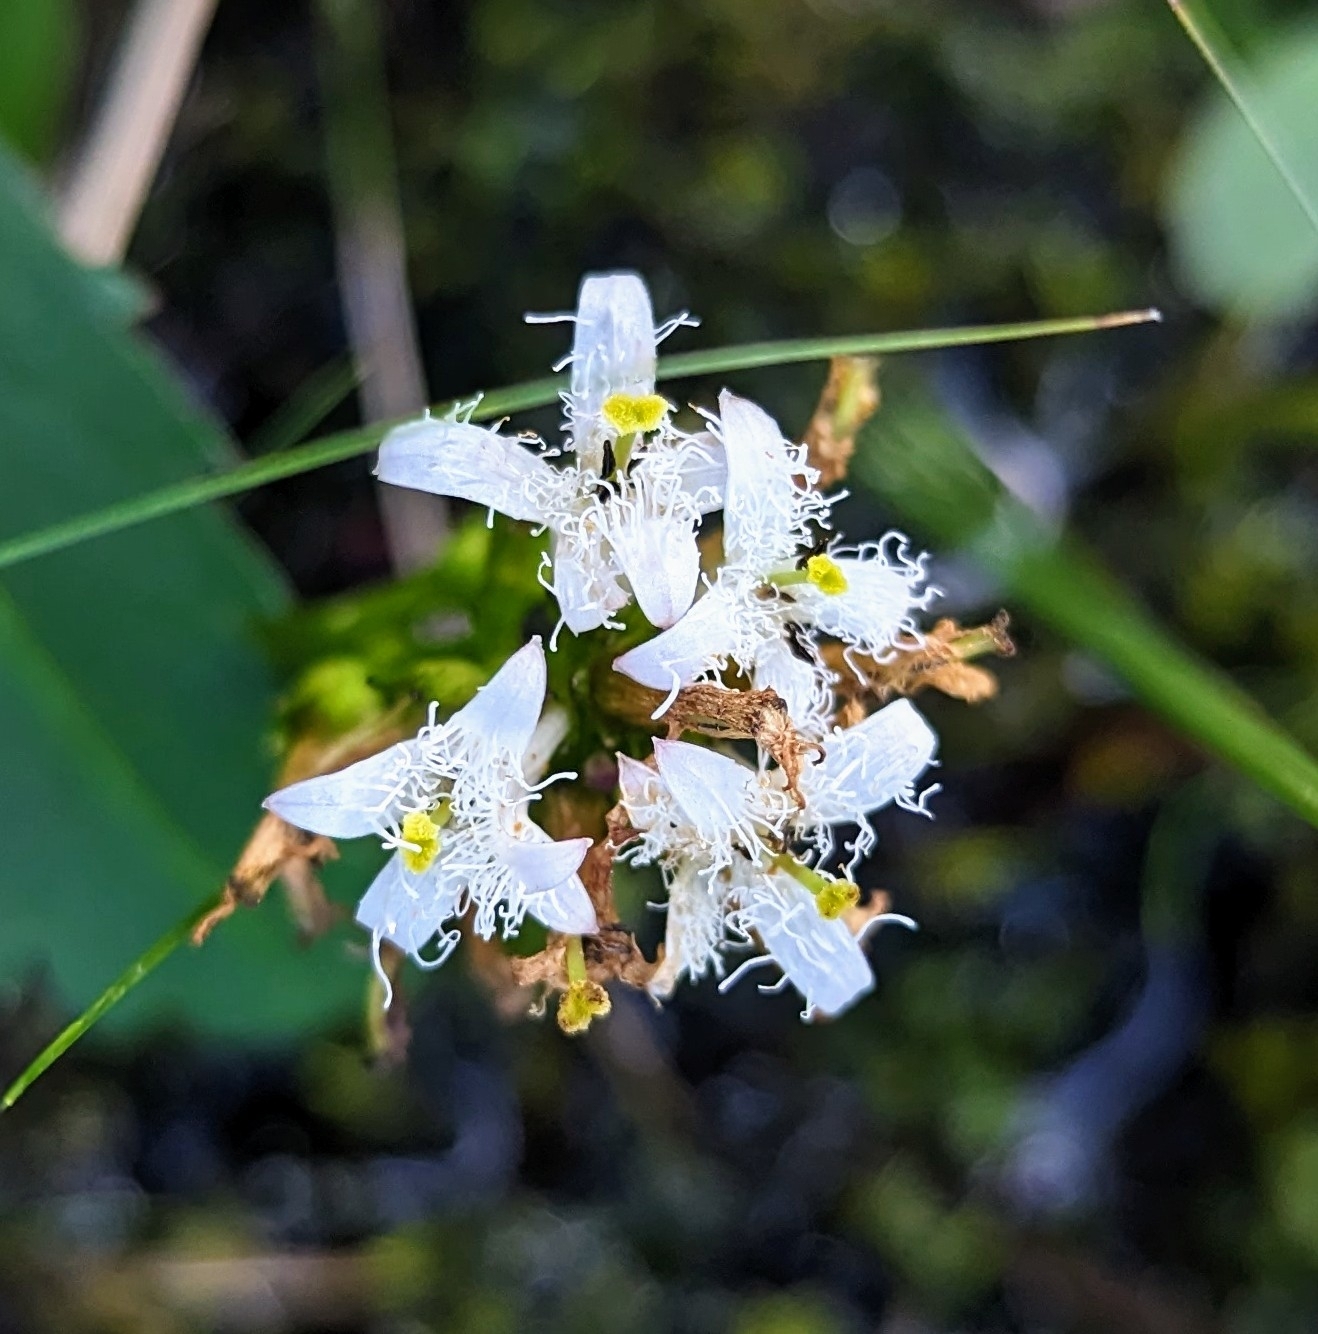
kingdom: Plantae
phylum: Tracheophyta
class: Magnoliopsida
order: Asterales
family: Menyanthaceae
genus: Menyanthes
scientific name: Menyanthes trifoliata
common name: Bogbean
